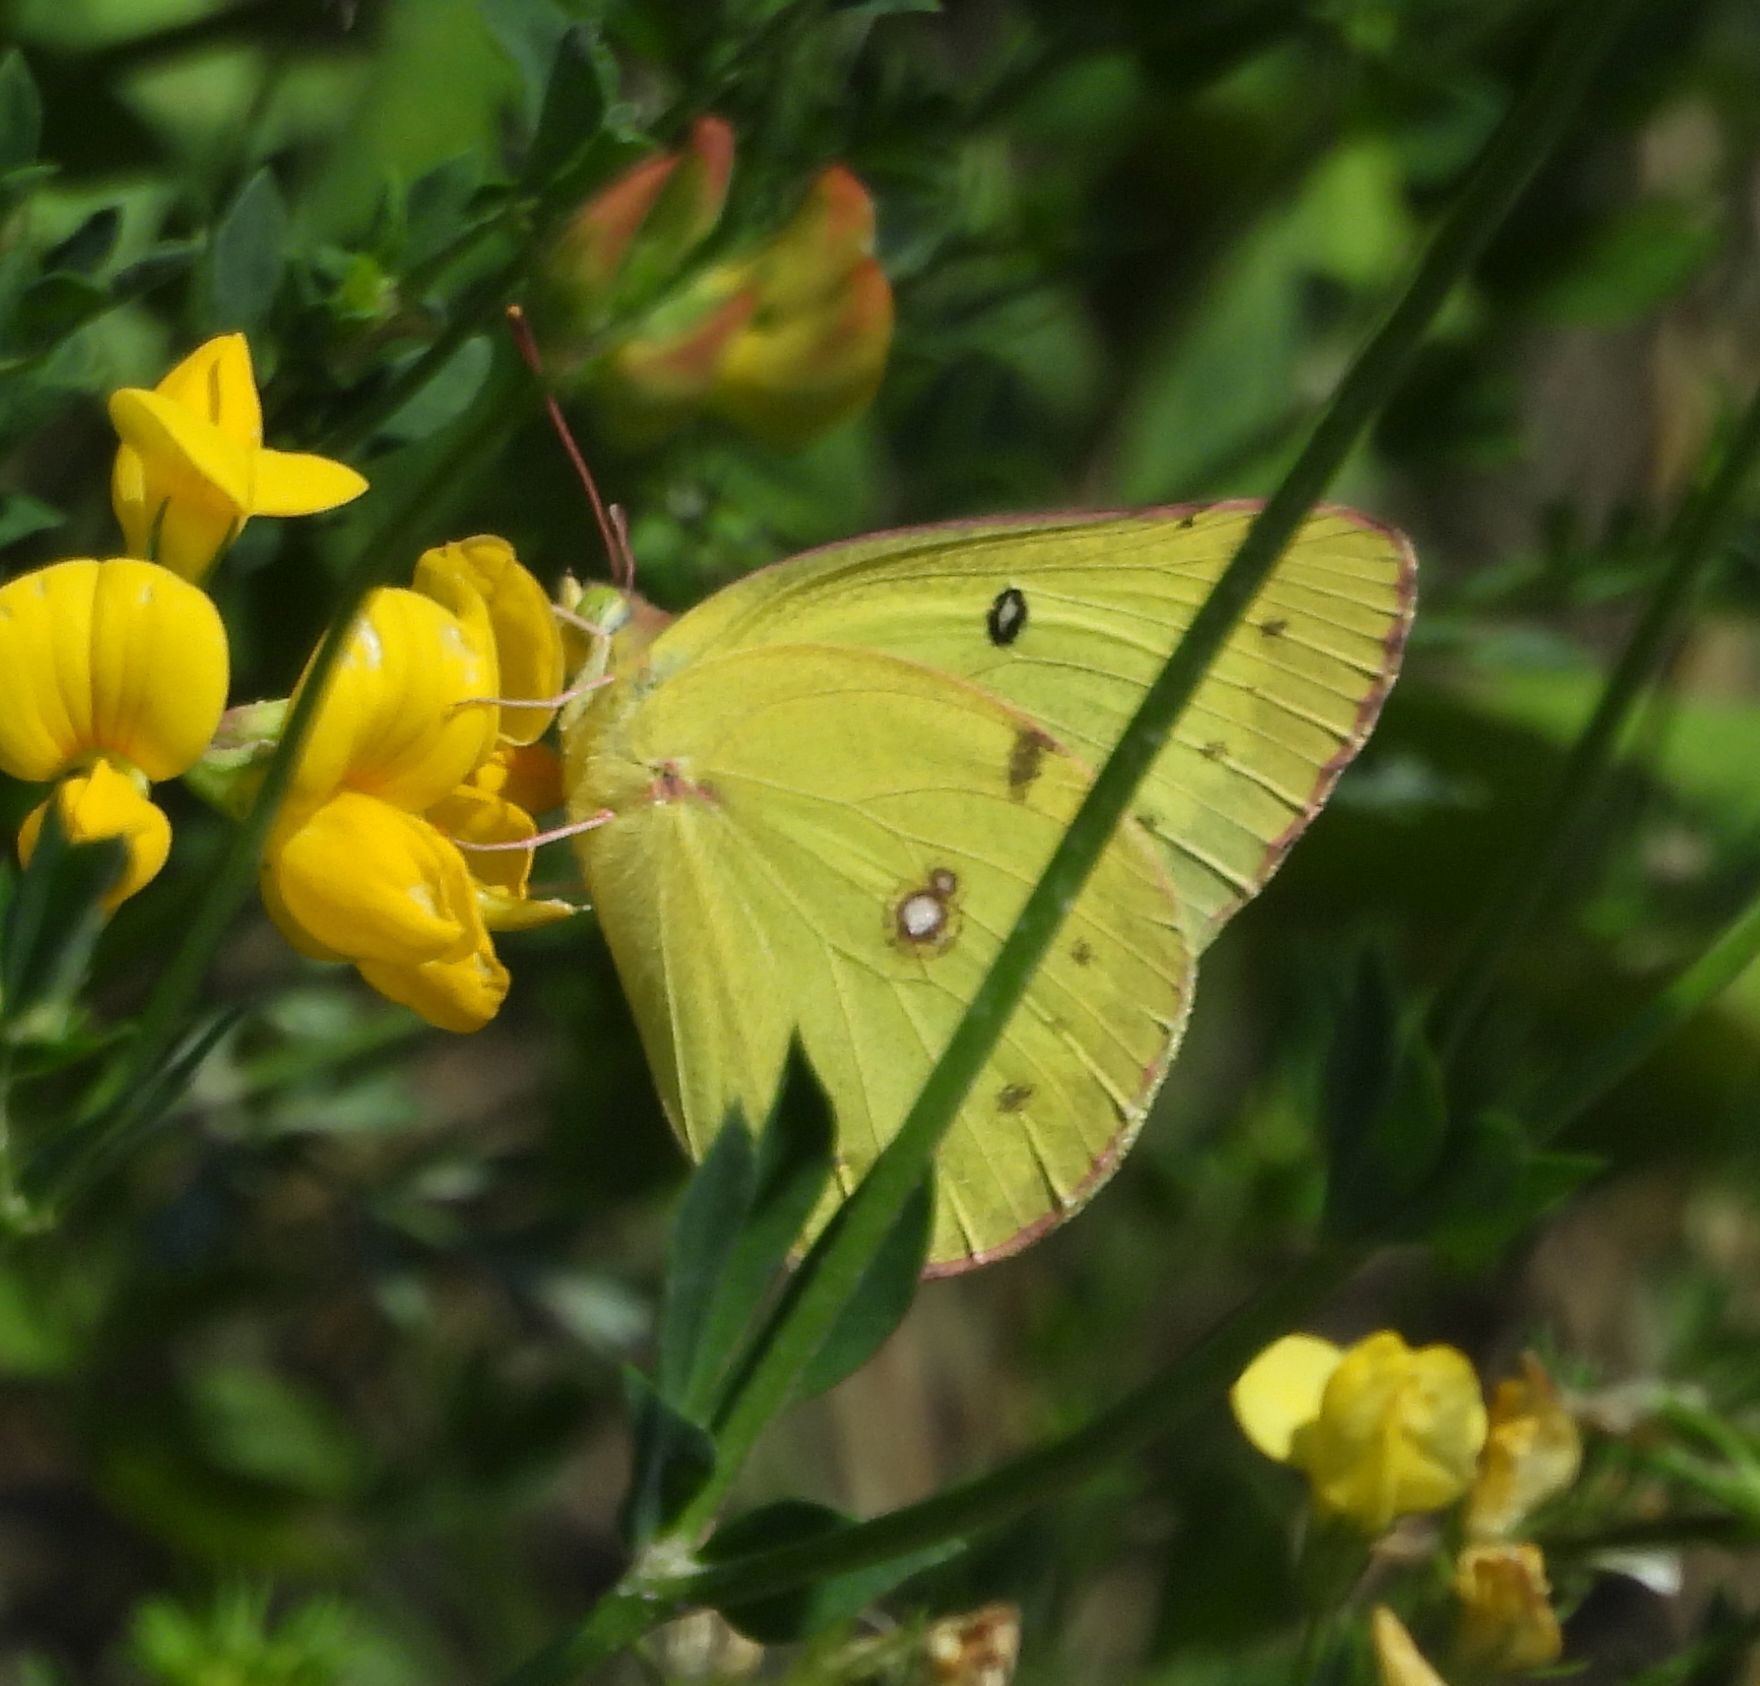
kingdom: Animalia
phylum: Arthropoda
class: Insecta
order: Lepidoptera
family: Pieridae
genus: Colias
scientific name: Colias philodice
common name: Clouded sulphur
